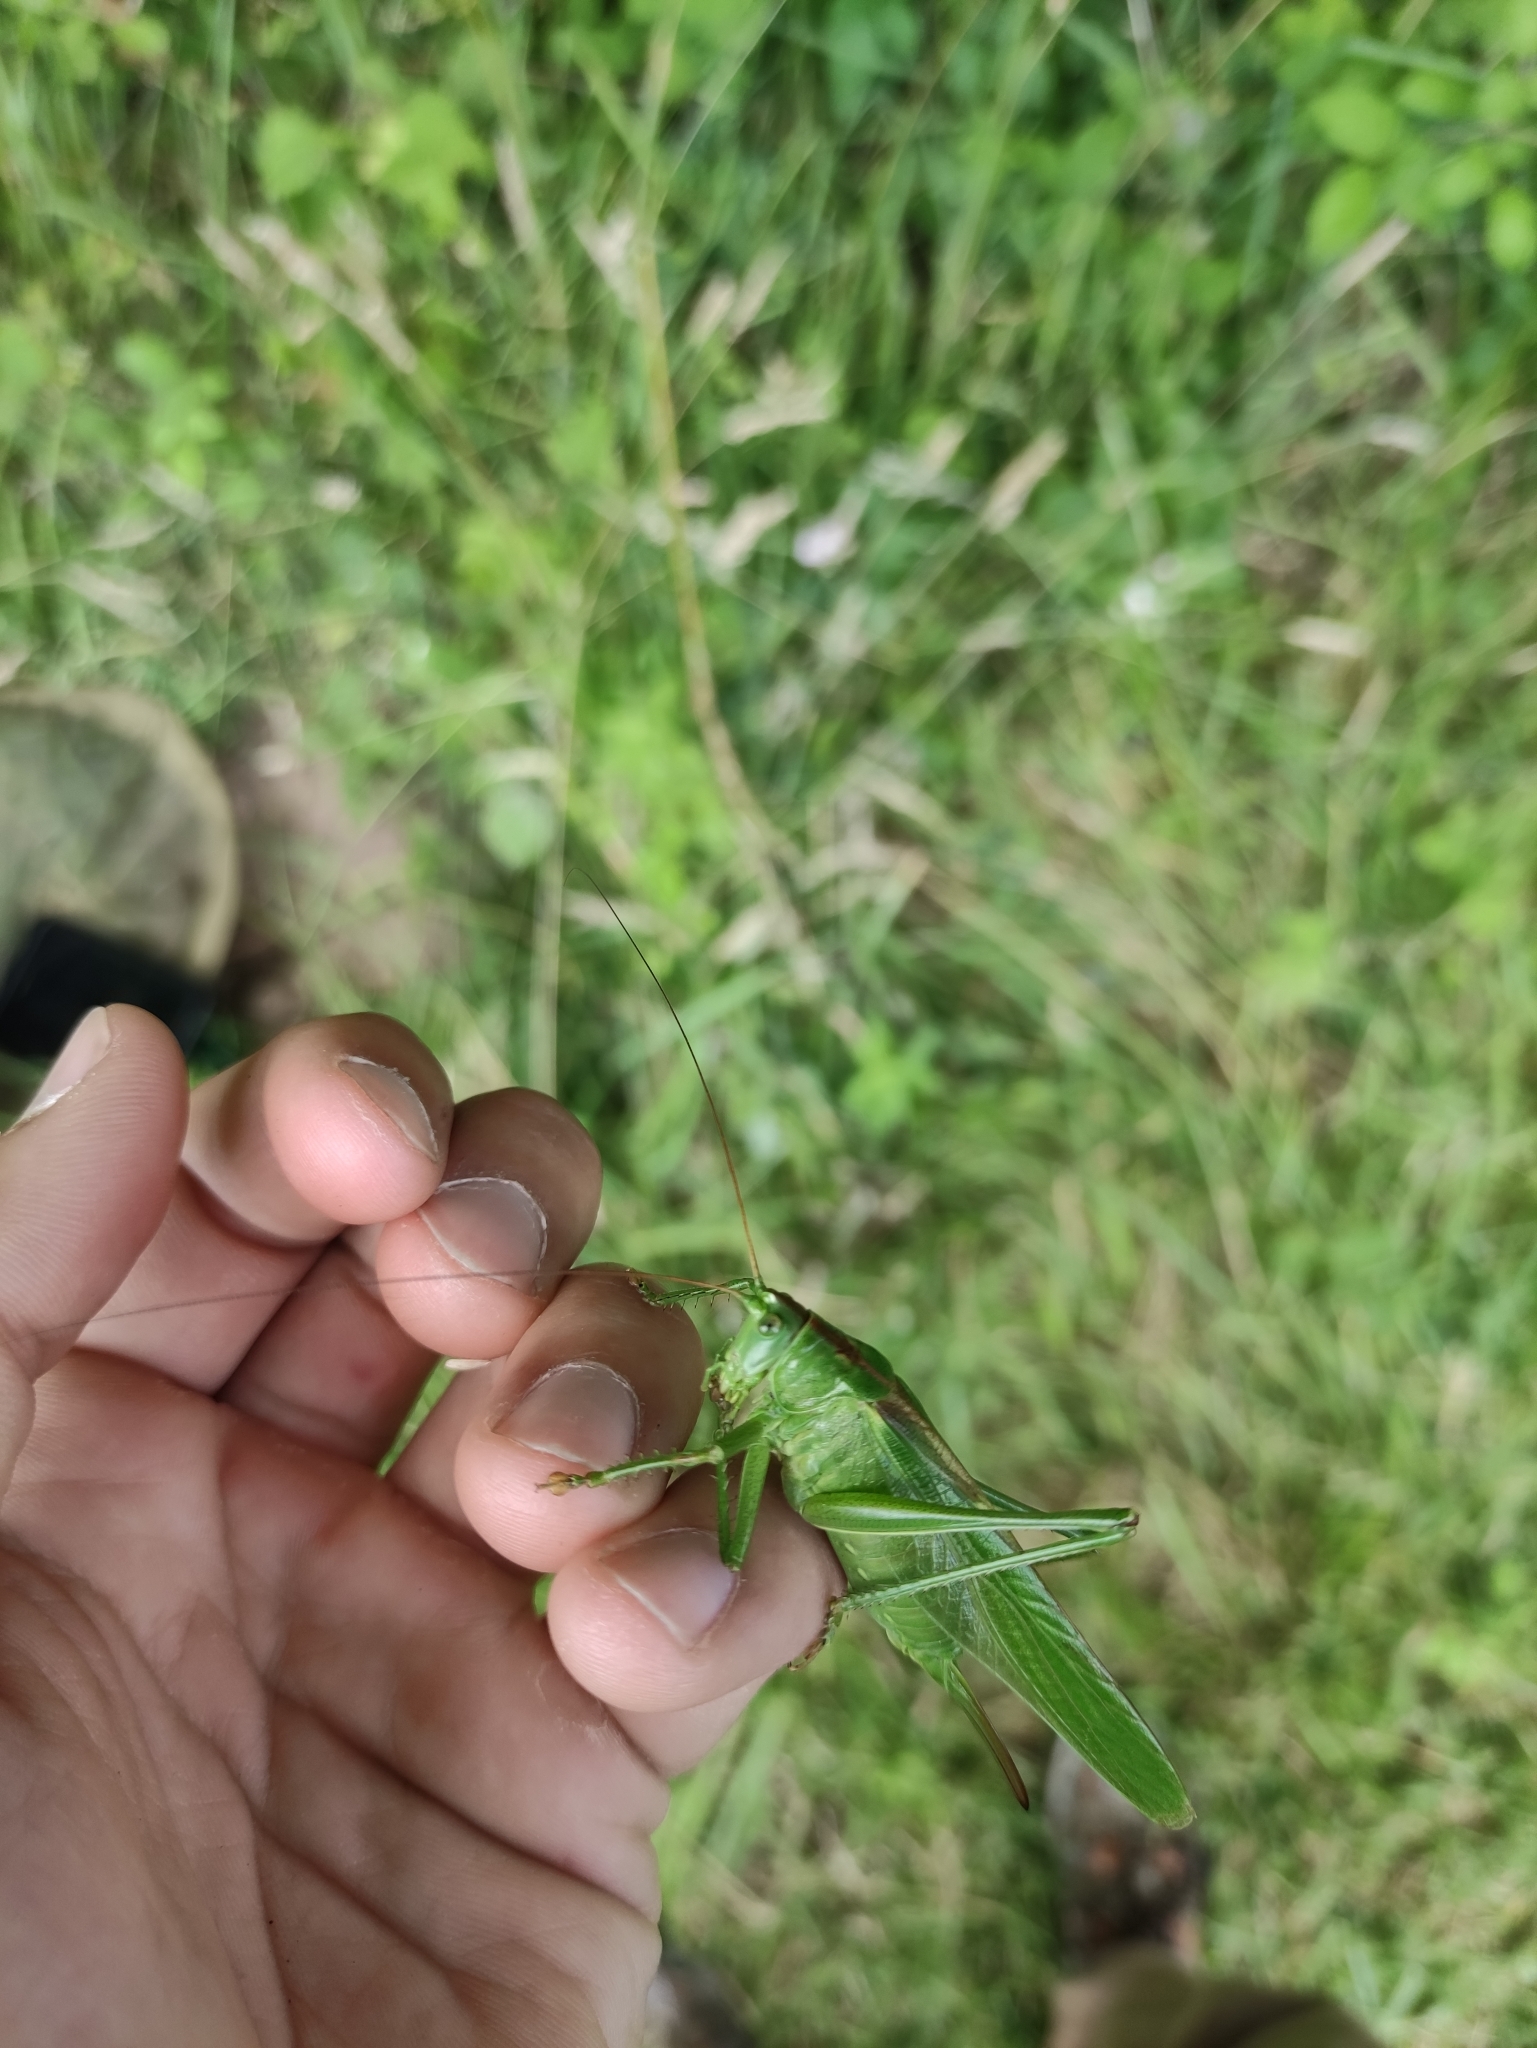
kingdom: Animalia
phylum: Arthropoda
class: Insecta
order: Orthoptera
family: Tettigoniidae
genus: Tettigonia
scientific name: Tettigonia viridissima
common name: Great green bush-cricket
